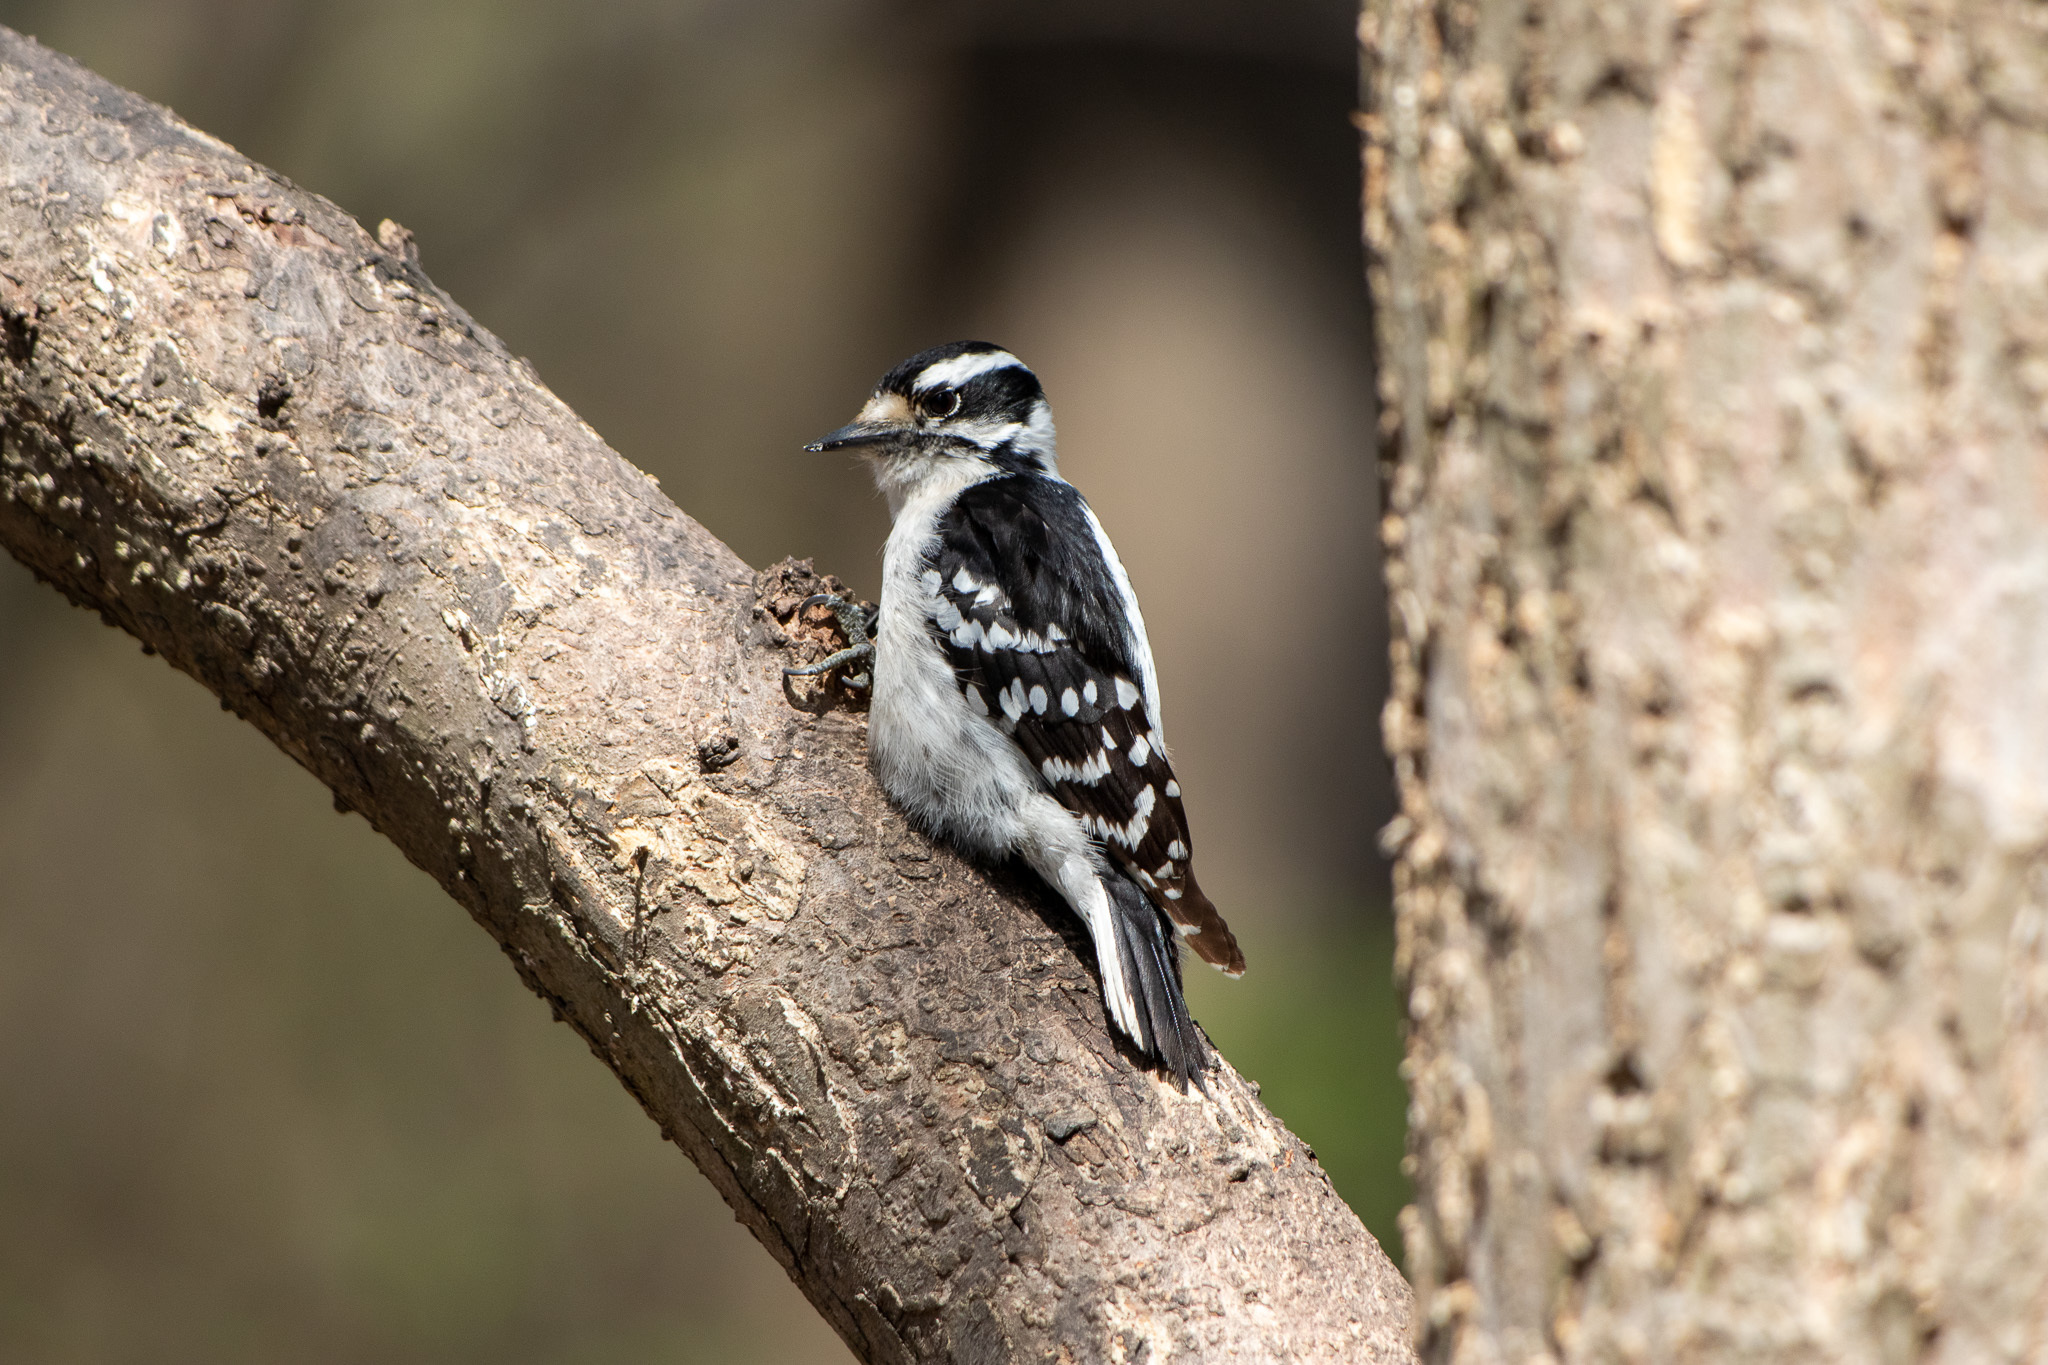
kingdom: Animalia
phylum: Chordata
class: Aves
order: Piciformes
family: Picidae
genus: Dryobates
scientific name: Dryobates pubescens
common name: Downy woodpecker
